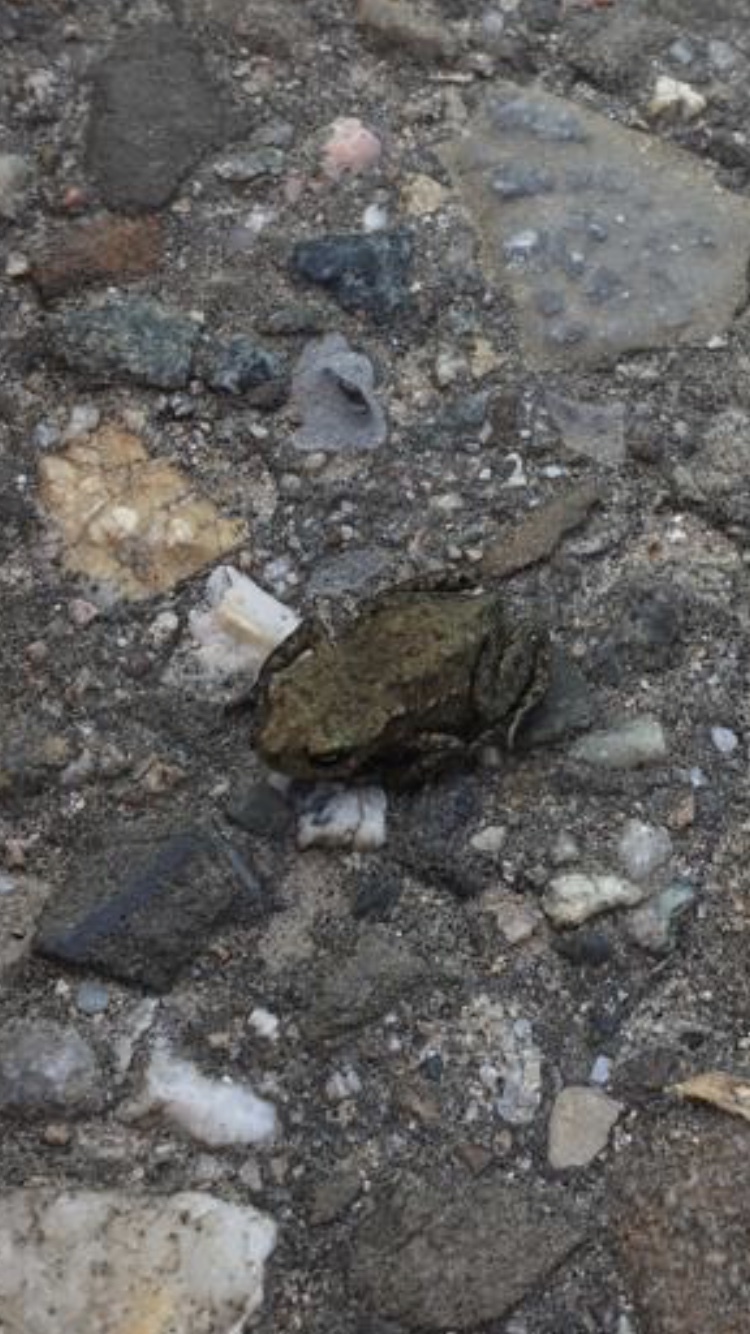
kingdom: Animalia
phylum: Chordata
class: Amphibia
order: Anura
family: Bufonidae
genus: Bufo
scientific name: Bufo bufo
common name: Common toad
